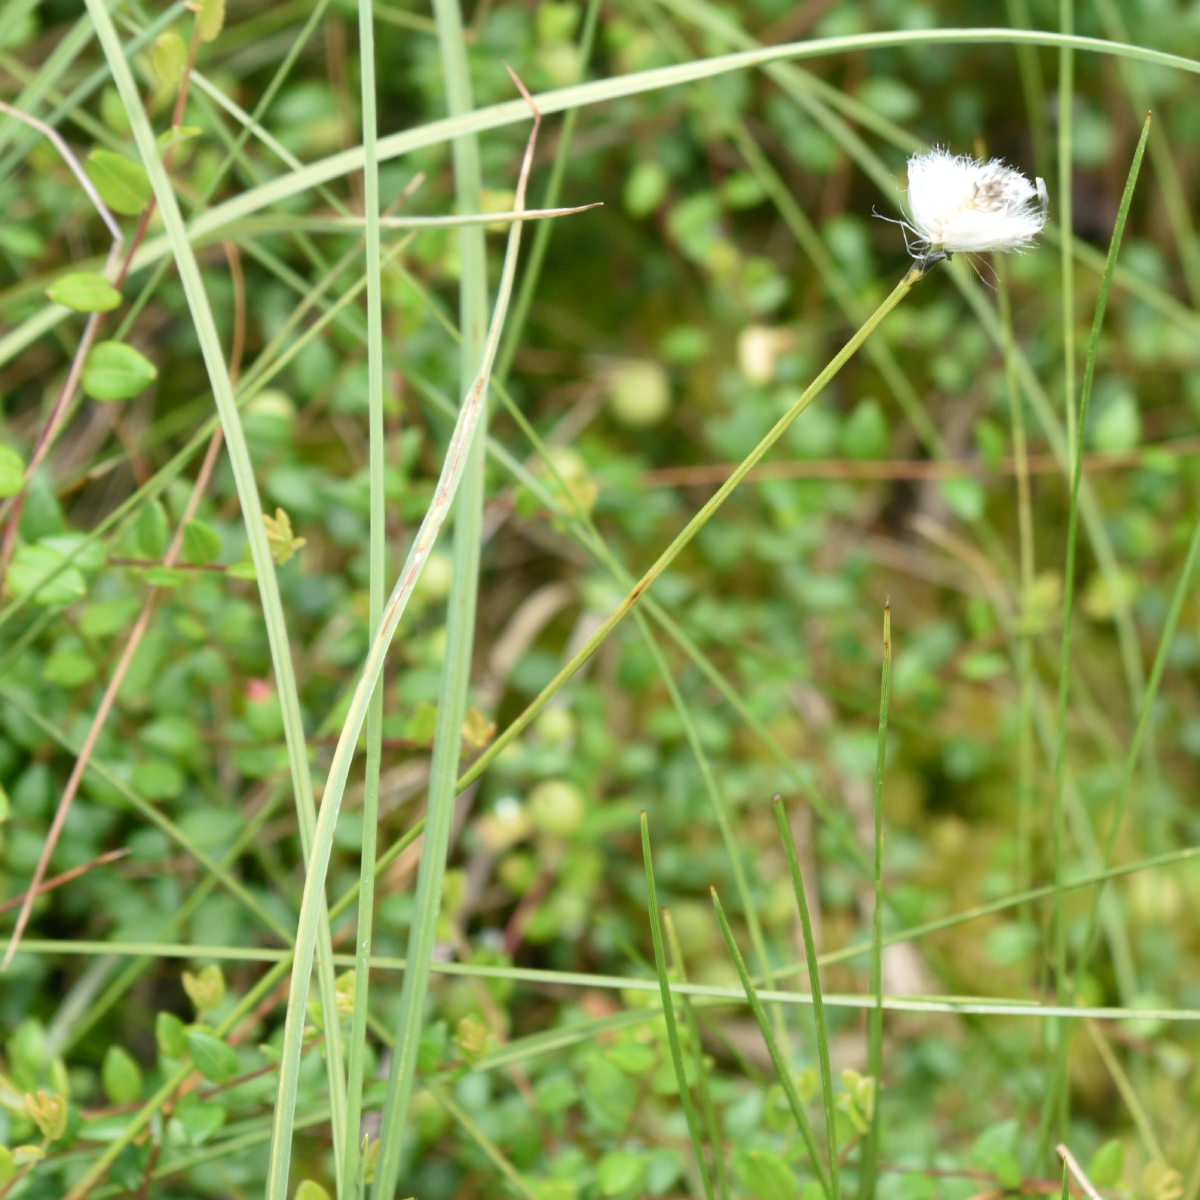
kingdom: Plantae
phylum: Tracheophyta
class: Liliopsida
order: Poales
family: Cyperaceae
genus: Eriophorum
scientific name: Eriophorum vaginatum
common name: Hare's-tail cottongrass
